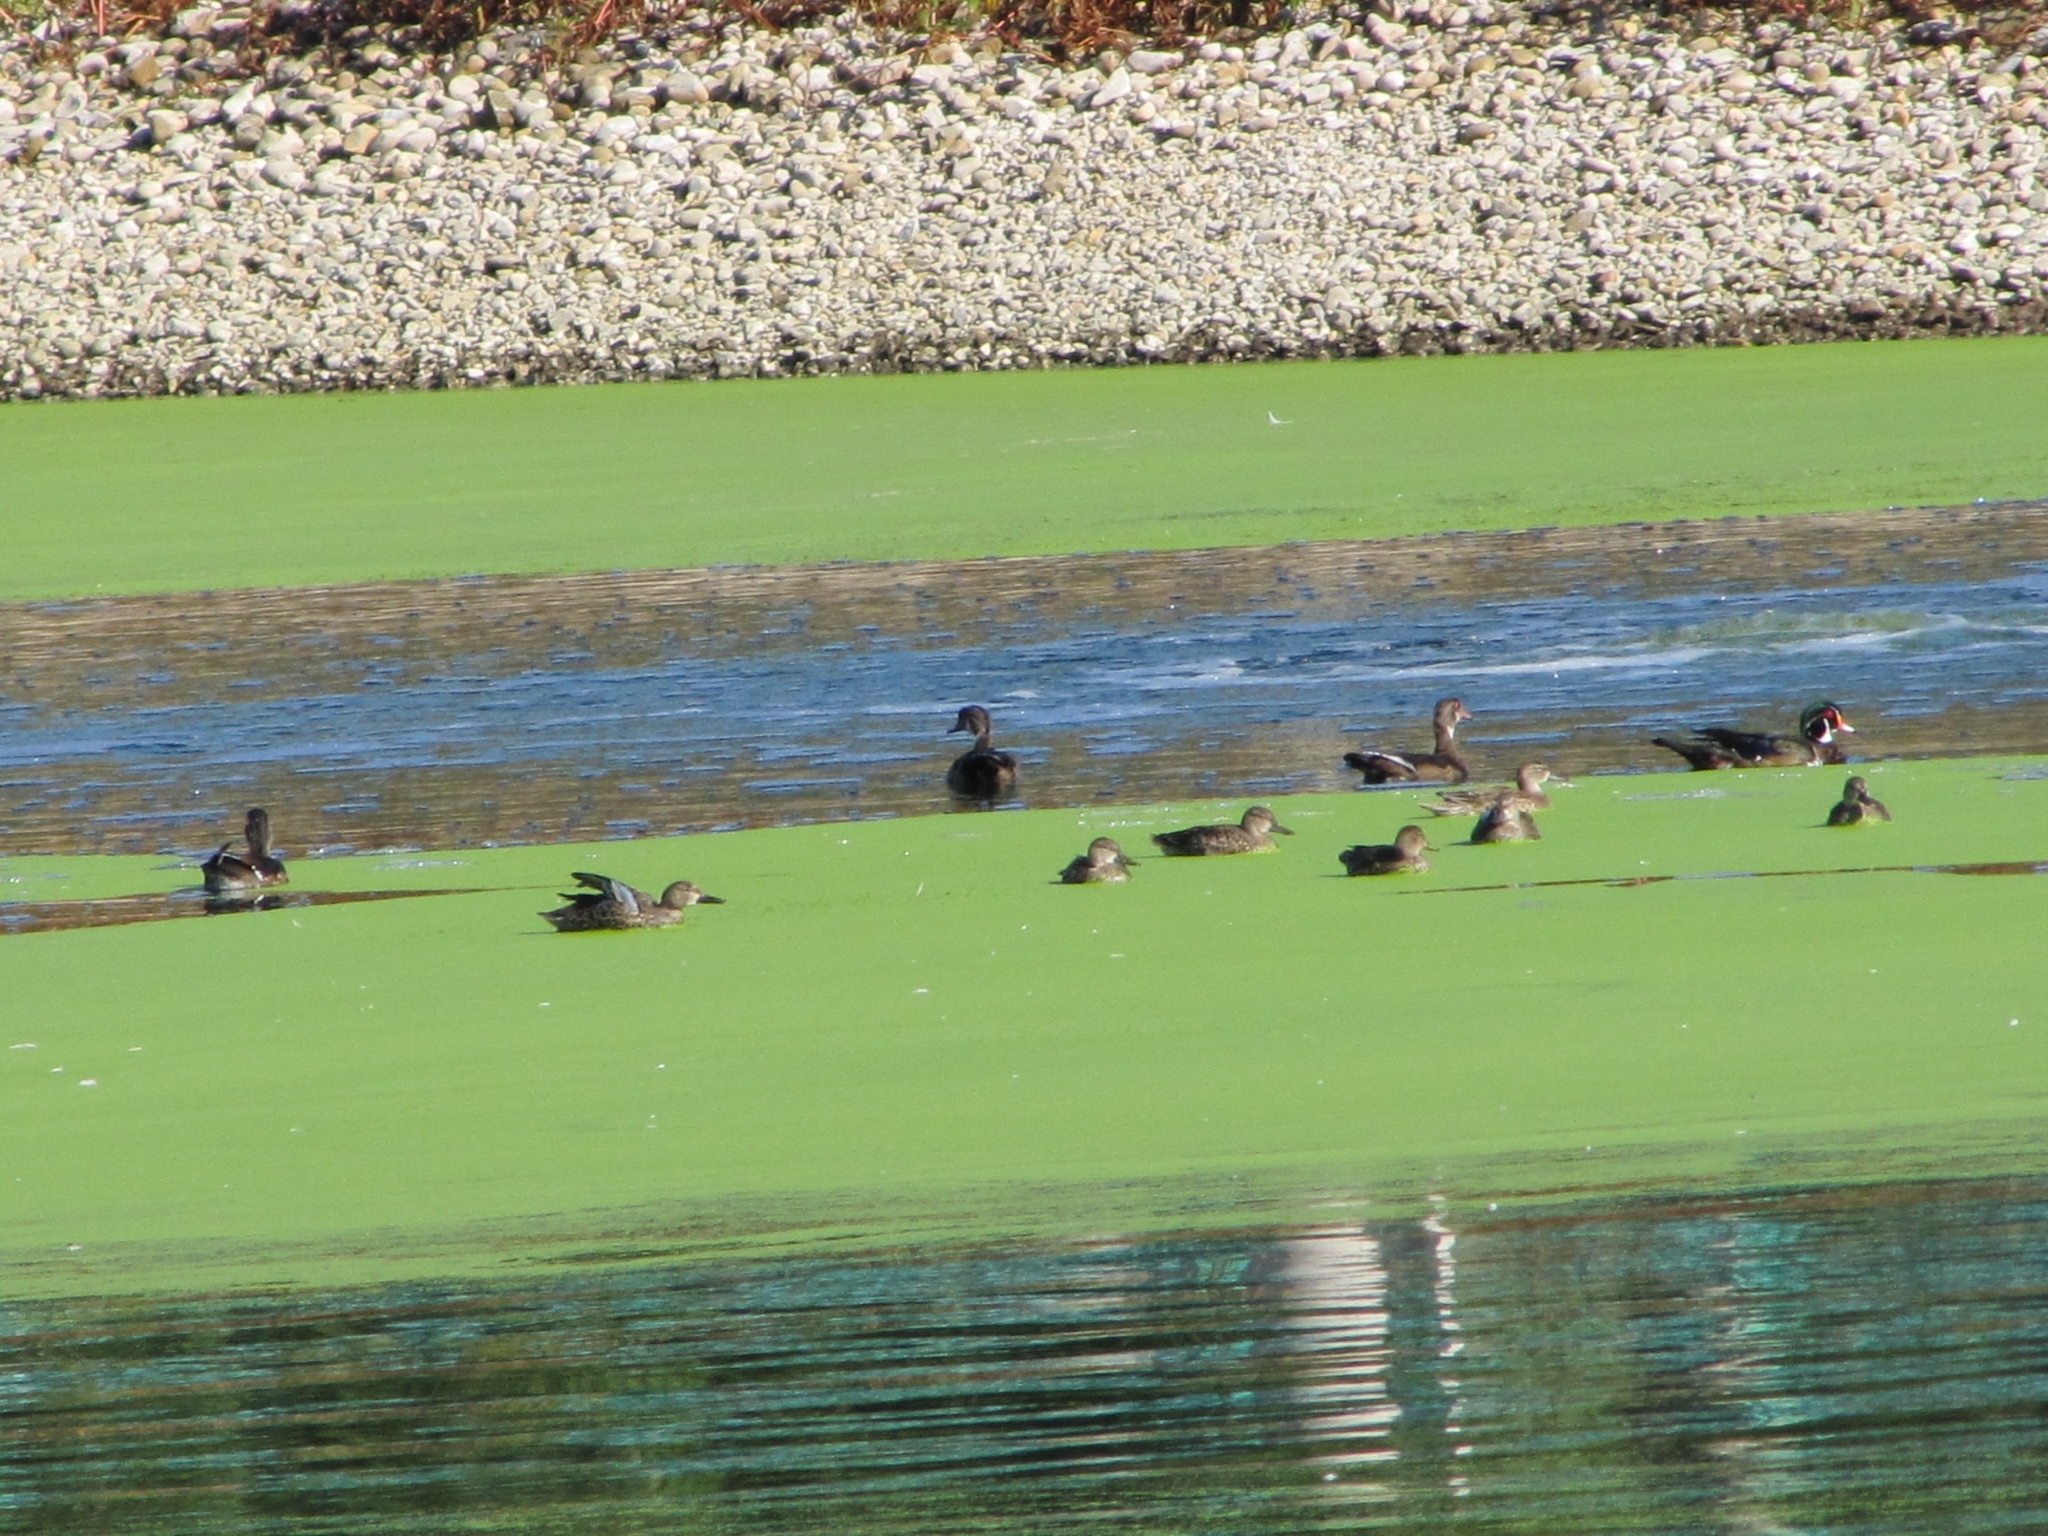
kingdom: Animalia
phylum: Chordata
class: Aves
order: Anseriformes
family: Anatidae
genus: Spatula
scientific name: Spatula discors
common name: Blue-winged teal
